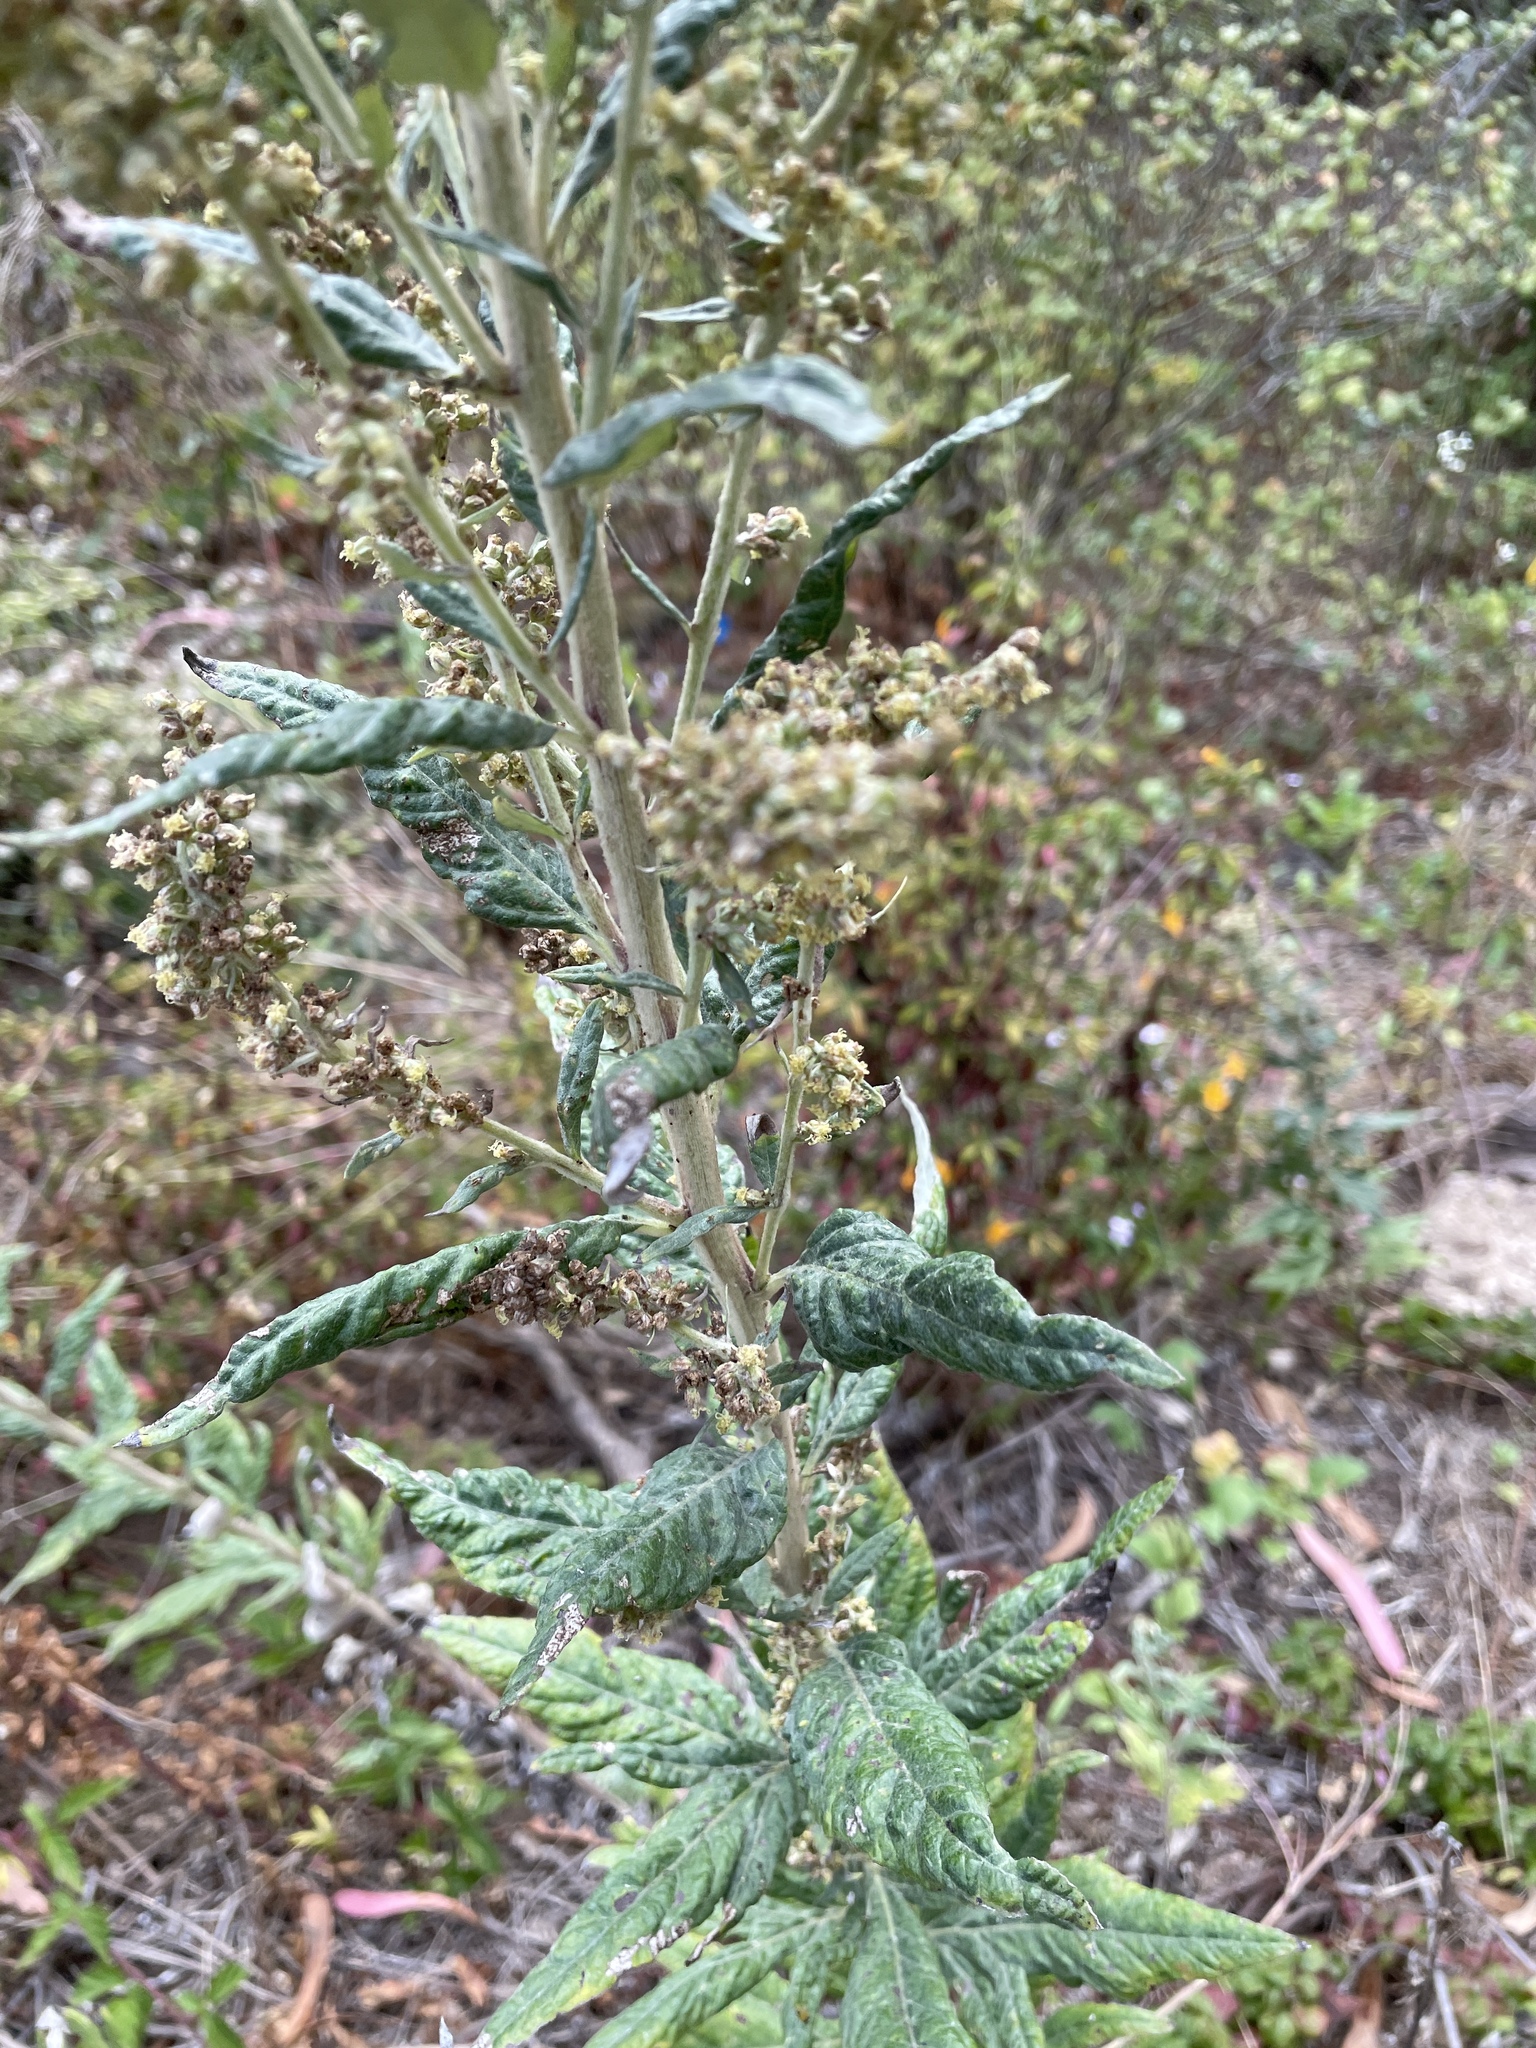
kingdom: Plantae
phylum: Tracheophyta
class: Magnoliopsida
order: Asterales
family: Asteraceae
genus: Artemisia
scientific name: Artemisia douglasiana
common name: Northwest mugwort
